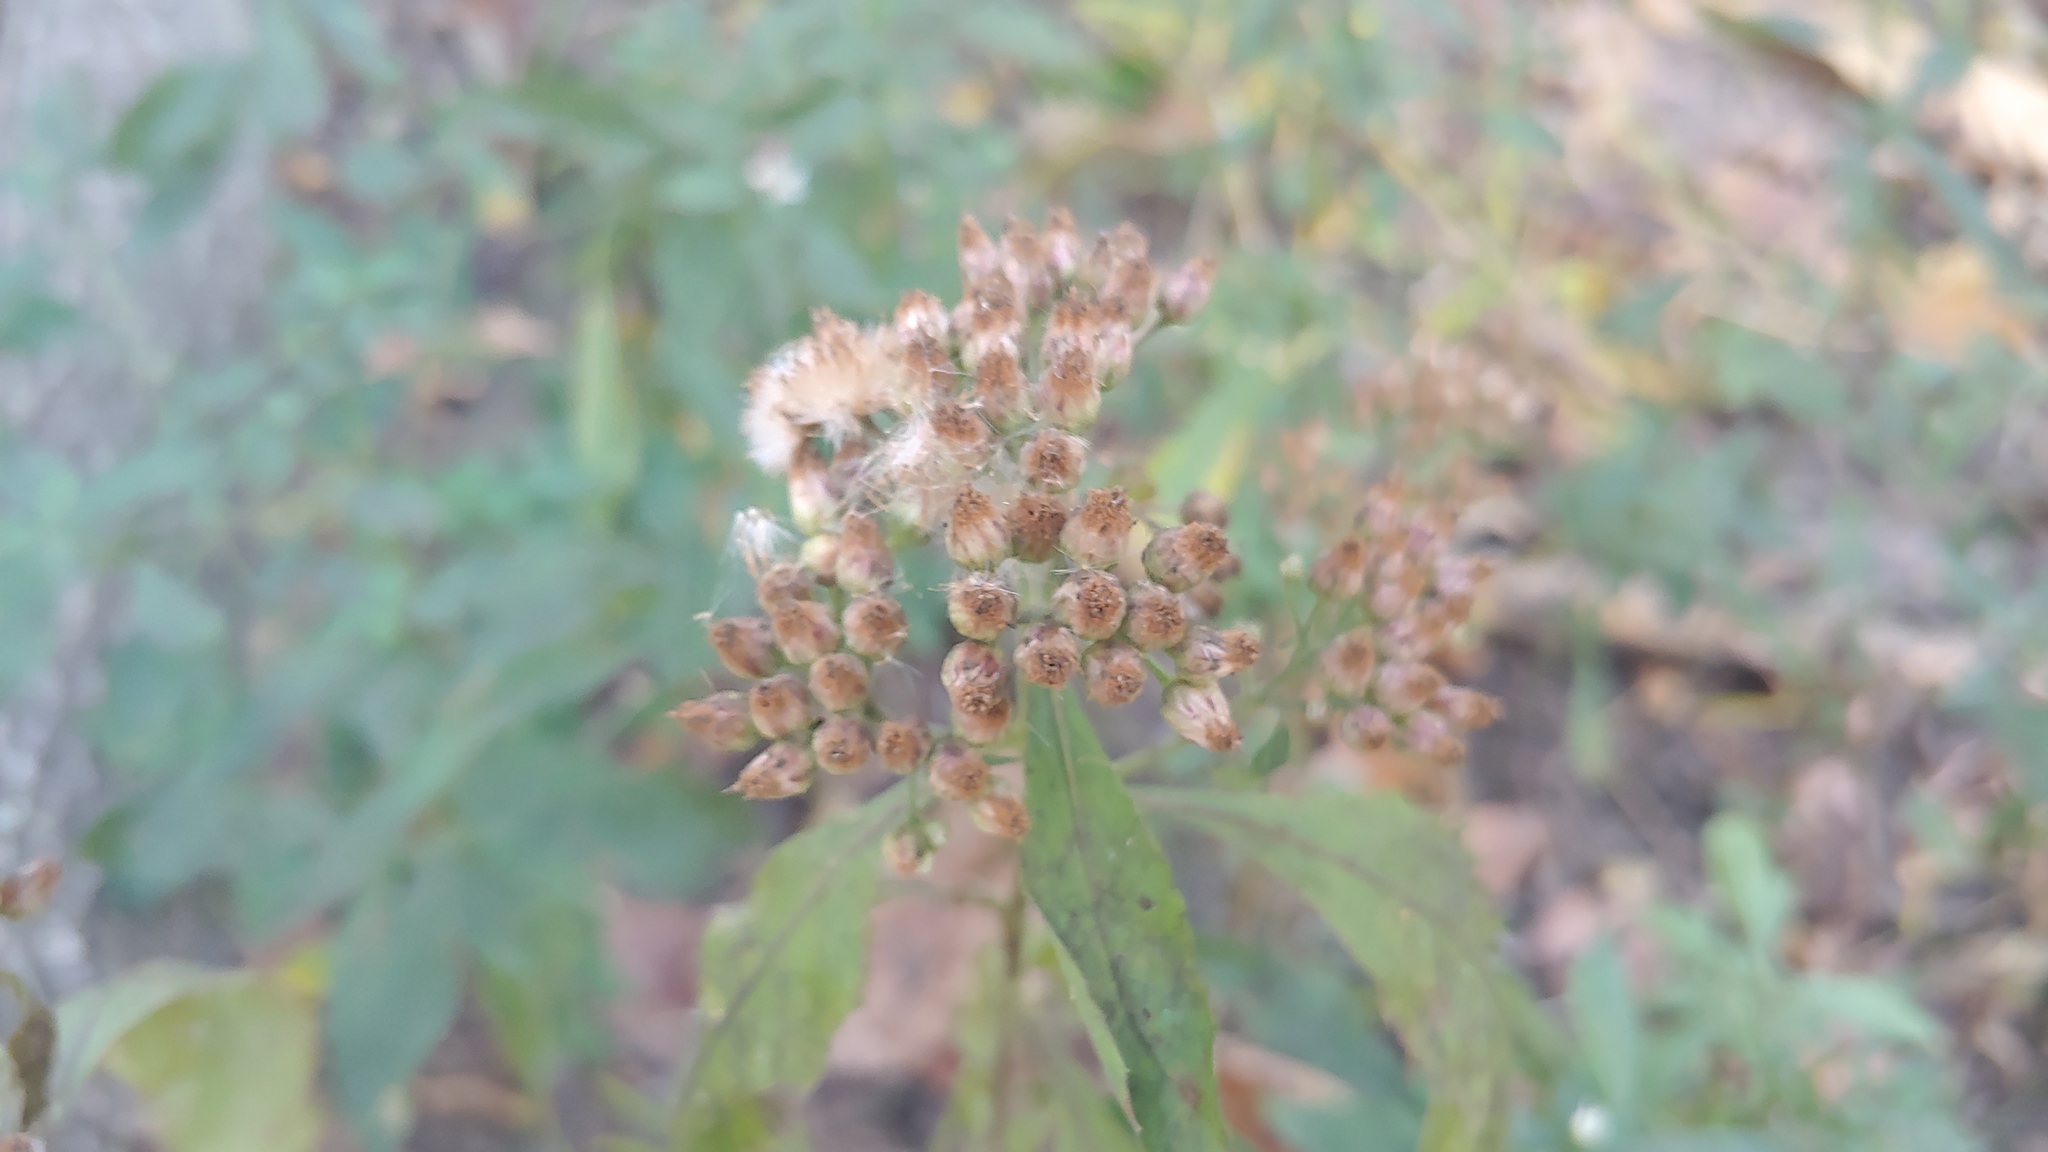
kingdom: Plantae
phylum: Tracheophyta
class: Magnoliopsida
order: Asterales
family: Asteraceae
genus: Pluchea
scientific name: Pluchea camphorata
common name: Camphor pluchea
